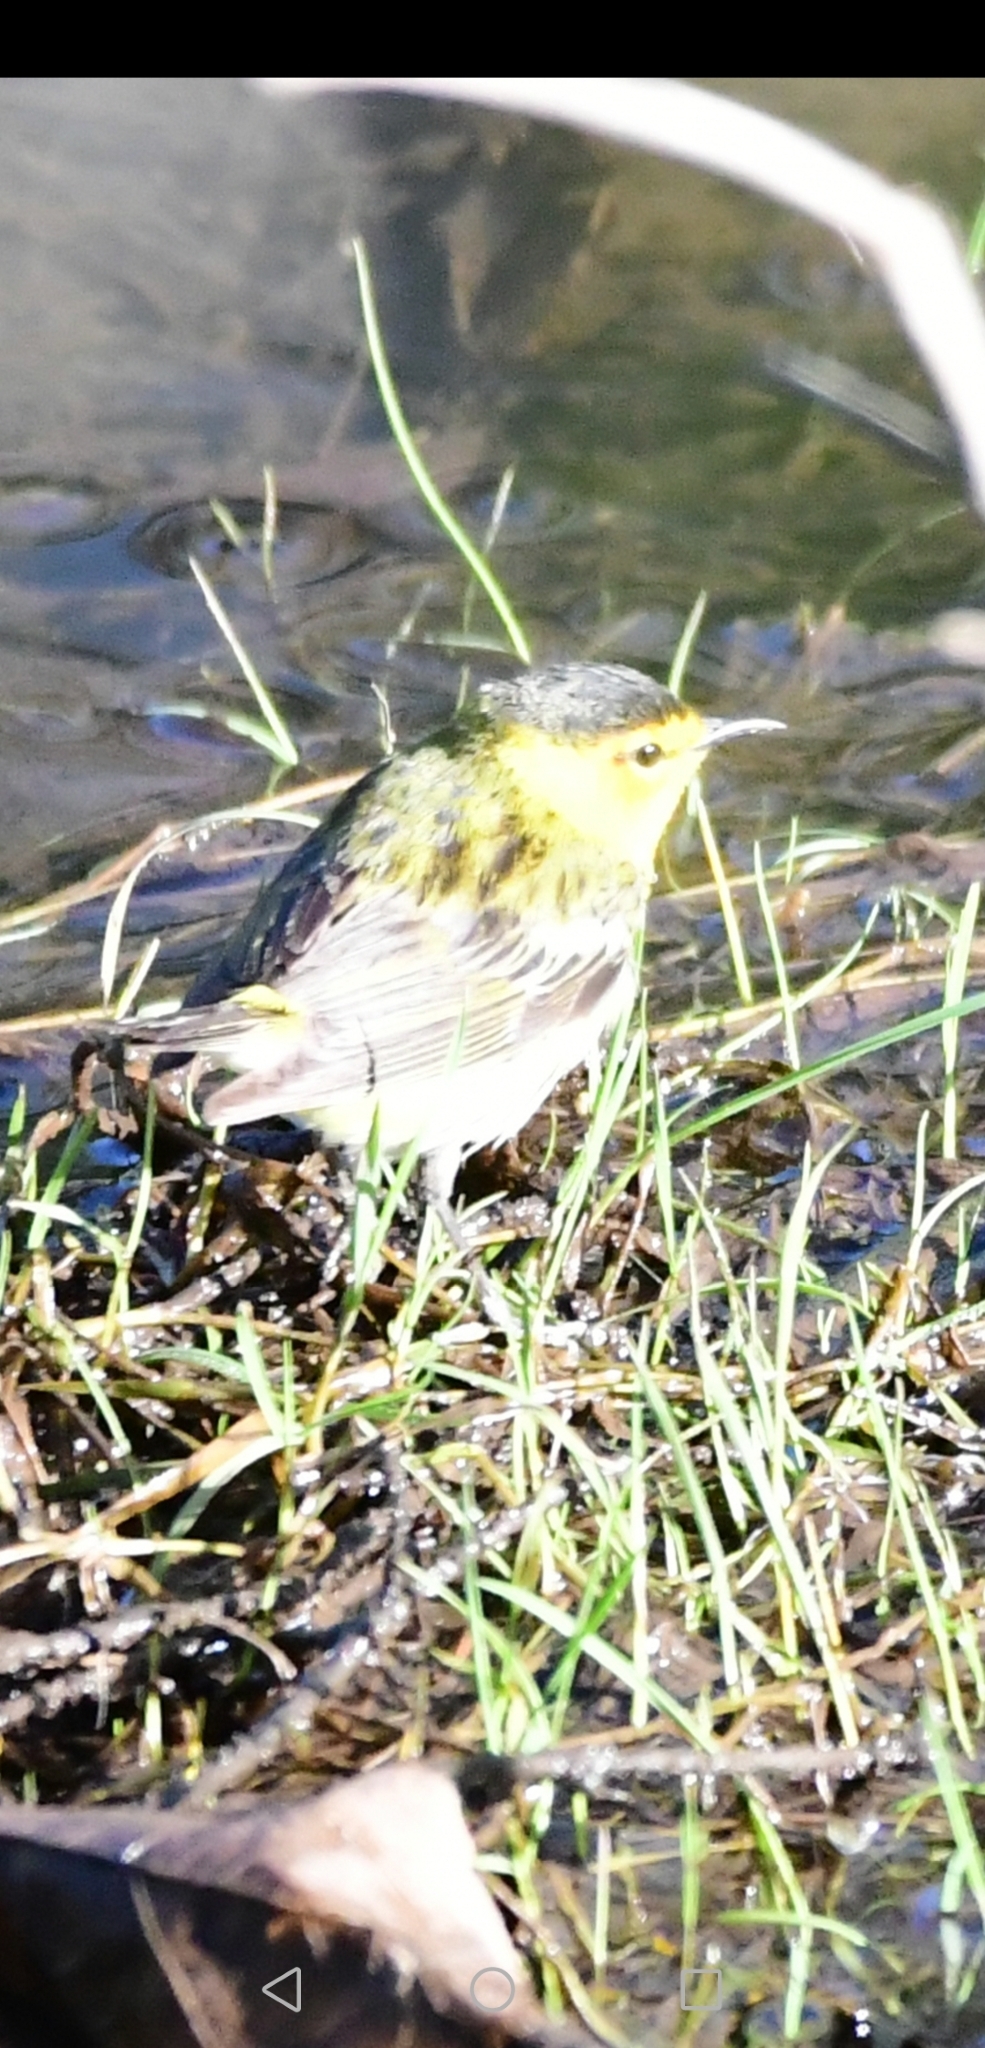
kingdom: Animalia
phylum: Chordata
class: Aves
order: Passeriformes
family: Parulidae
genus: Setophaga
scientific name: Setophaga tigrina
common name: Cape may warbler
